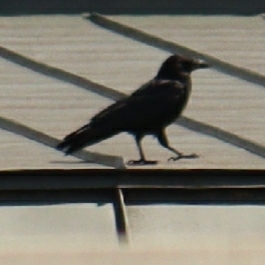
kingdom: Animalia
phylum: Chordata
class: Aves
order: Passeriformes
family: Corvidae
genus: Corvus
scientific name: Corvus corone
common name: Carrion crow
